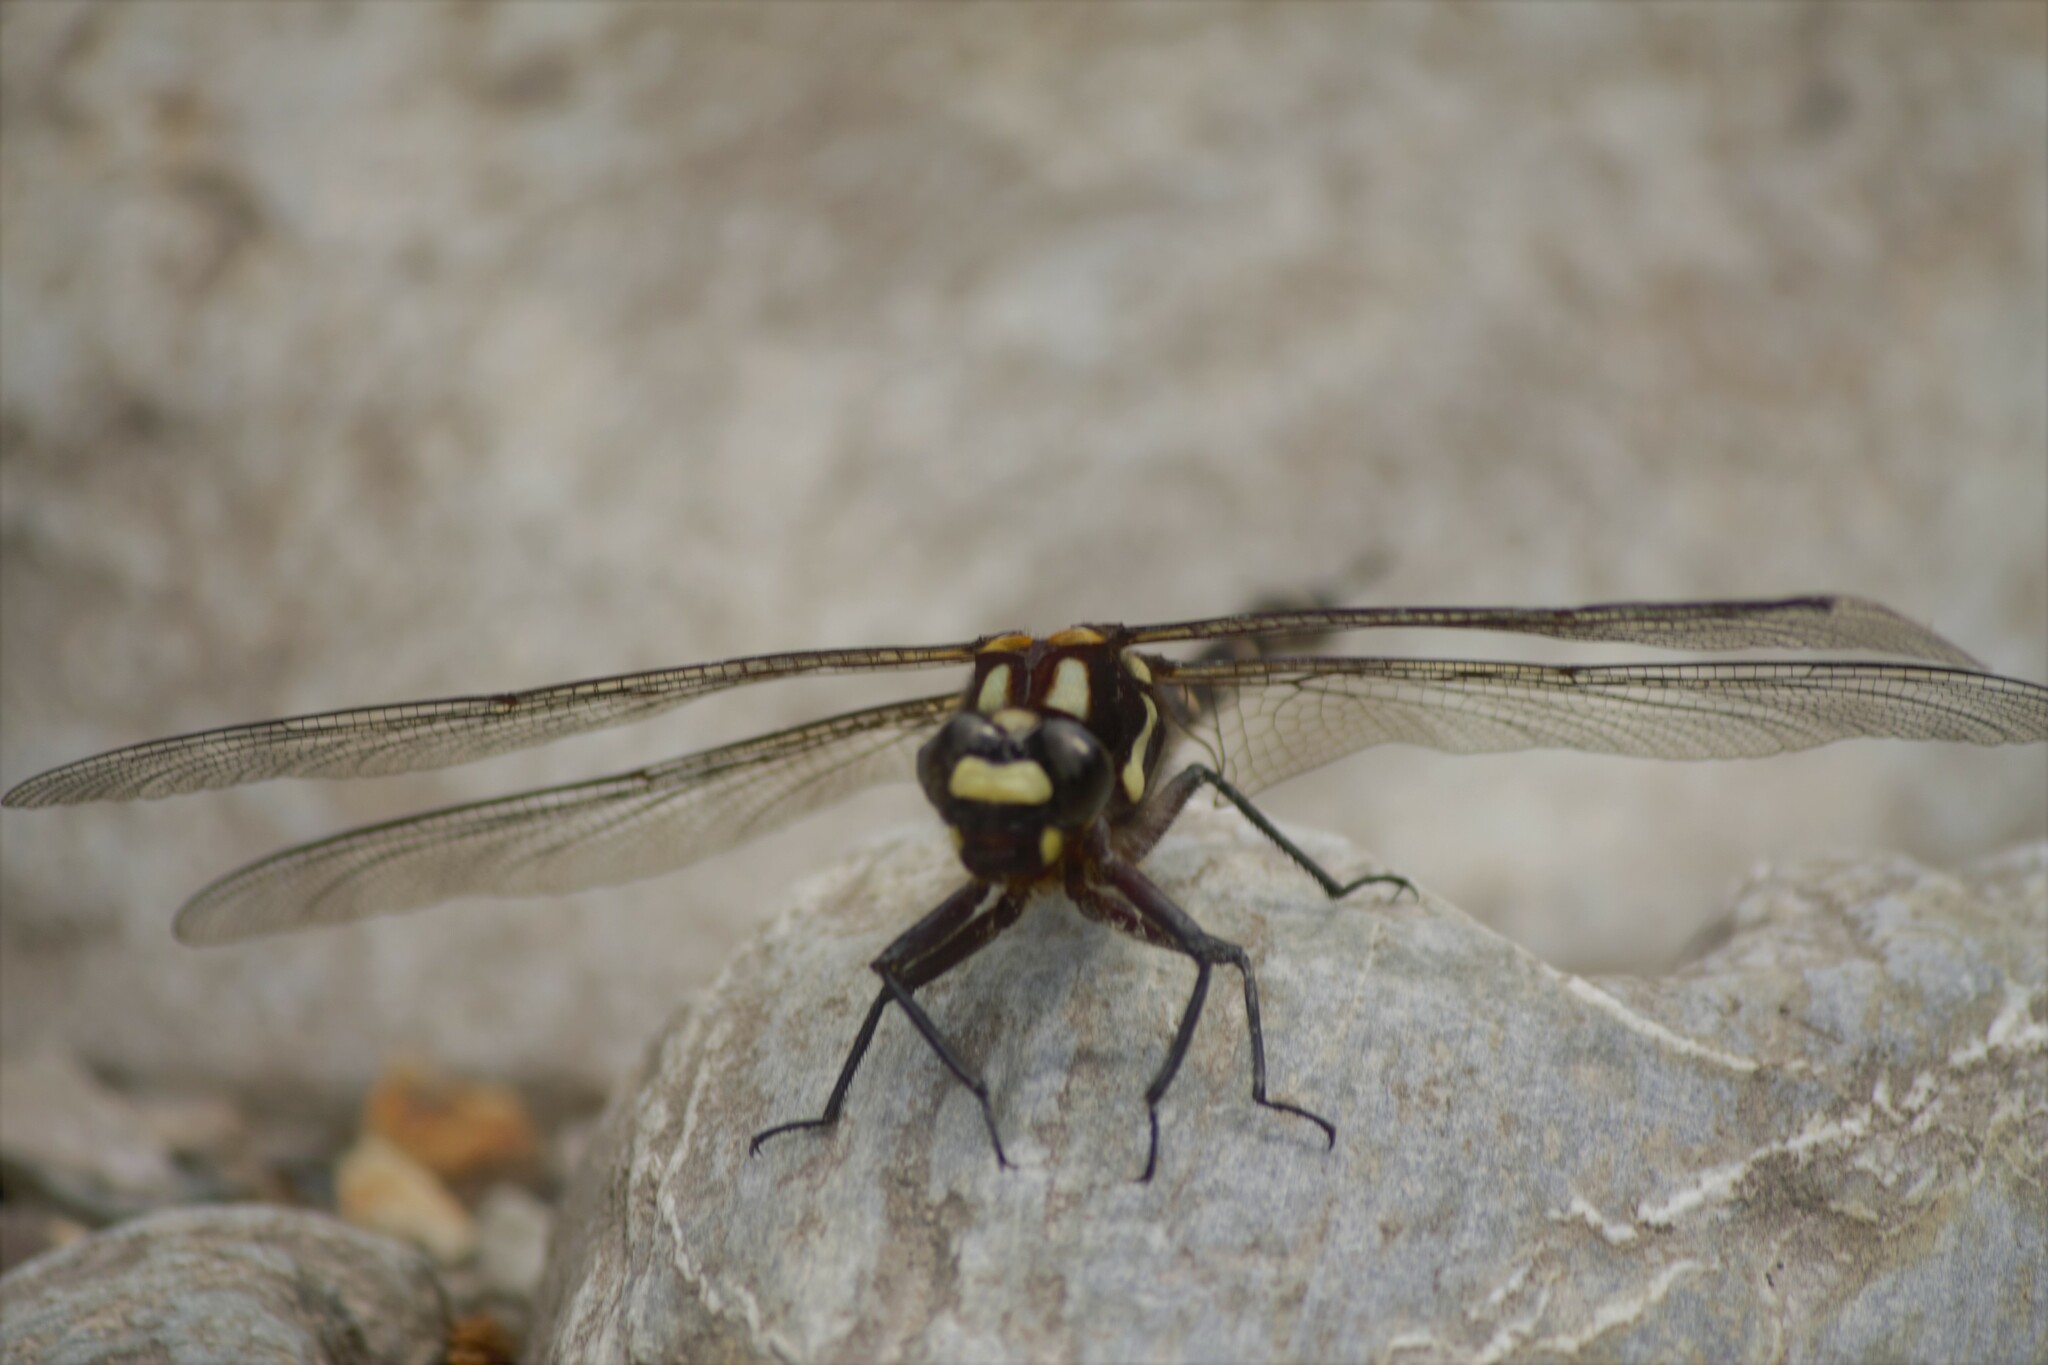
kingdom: Animalia
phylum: Arthropoda
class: Insecta
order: Odonata
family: Petaluridae
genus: Uropetala
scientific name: Uropetala carovei
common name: Bush giant dragonfly
